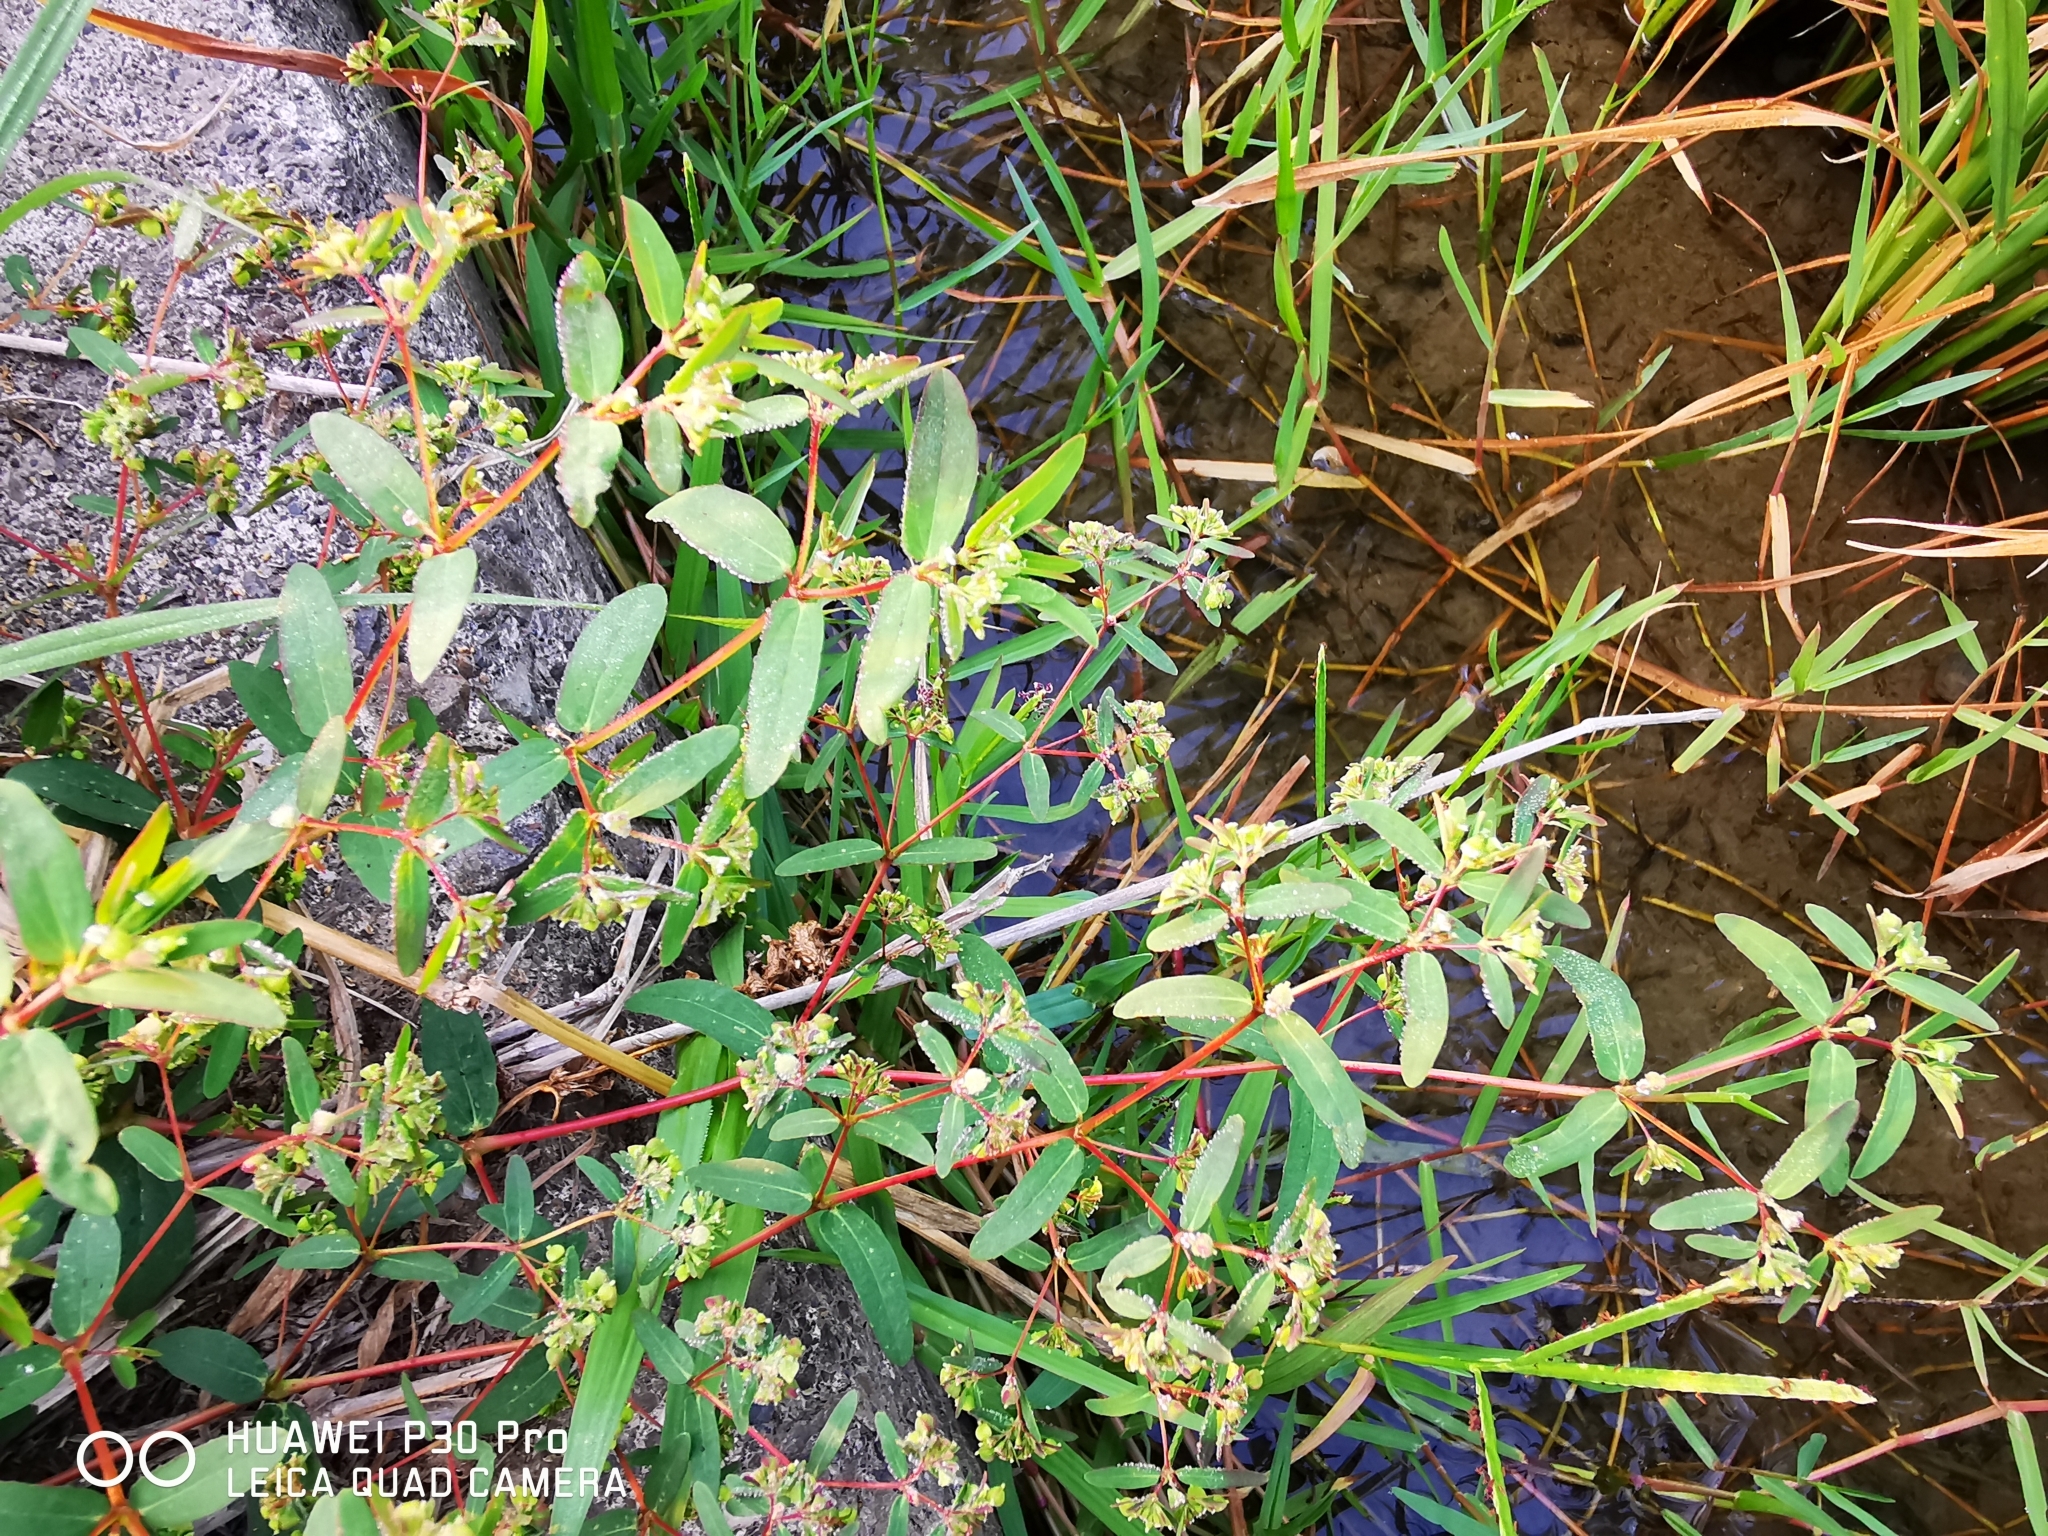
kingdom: Plantae
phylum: Tracheophyta
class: Magnoliopsida
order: Malpighiales
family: Euphorbiaceae
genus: Euphorbia
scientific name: Euphorbia hyssopifolia
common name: Hyssopleaf sandmat
